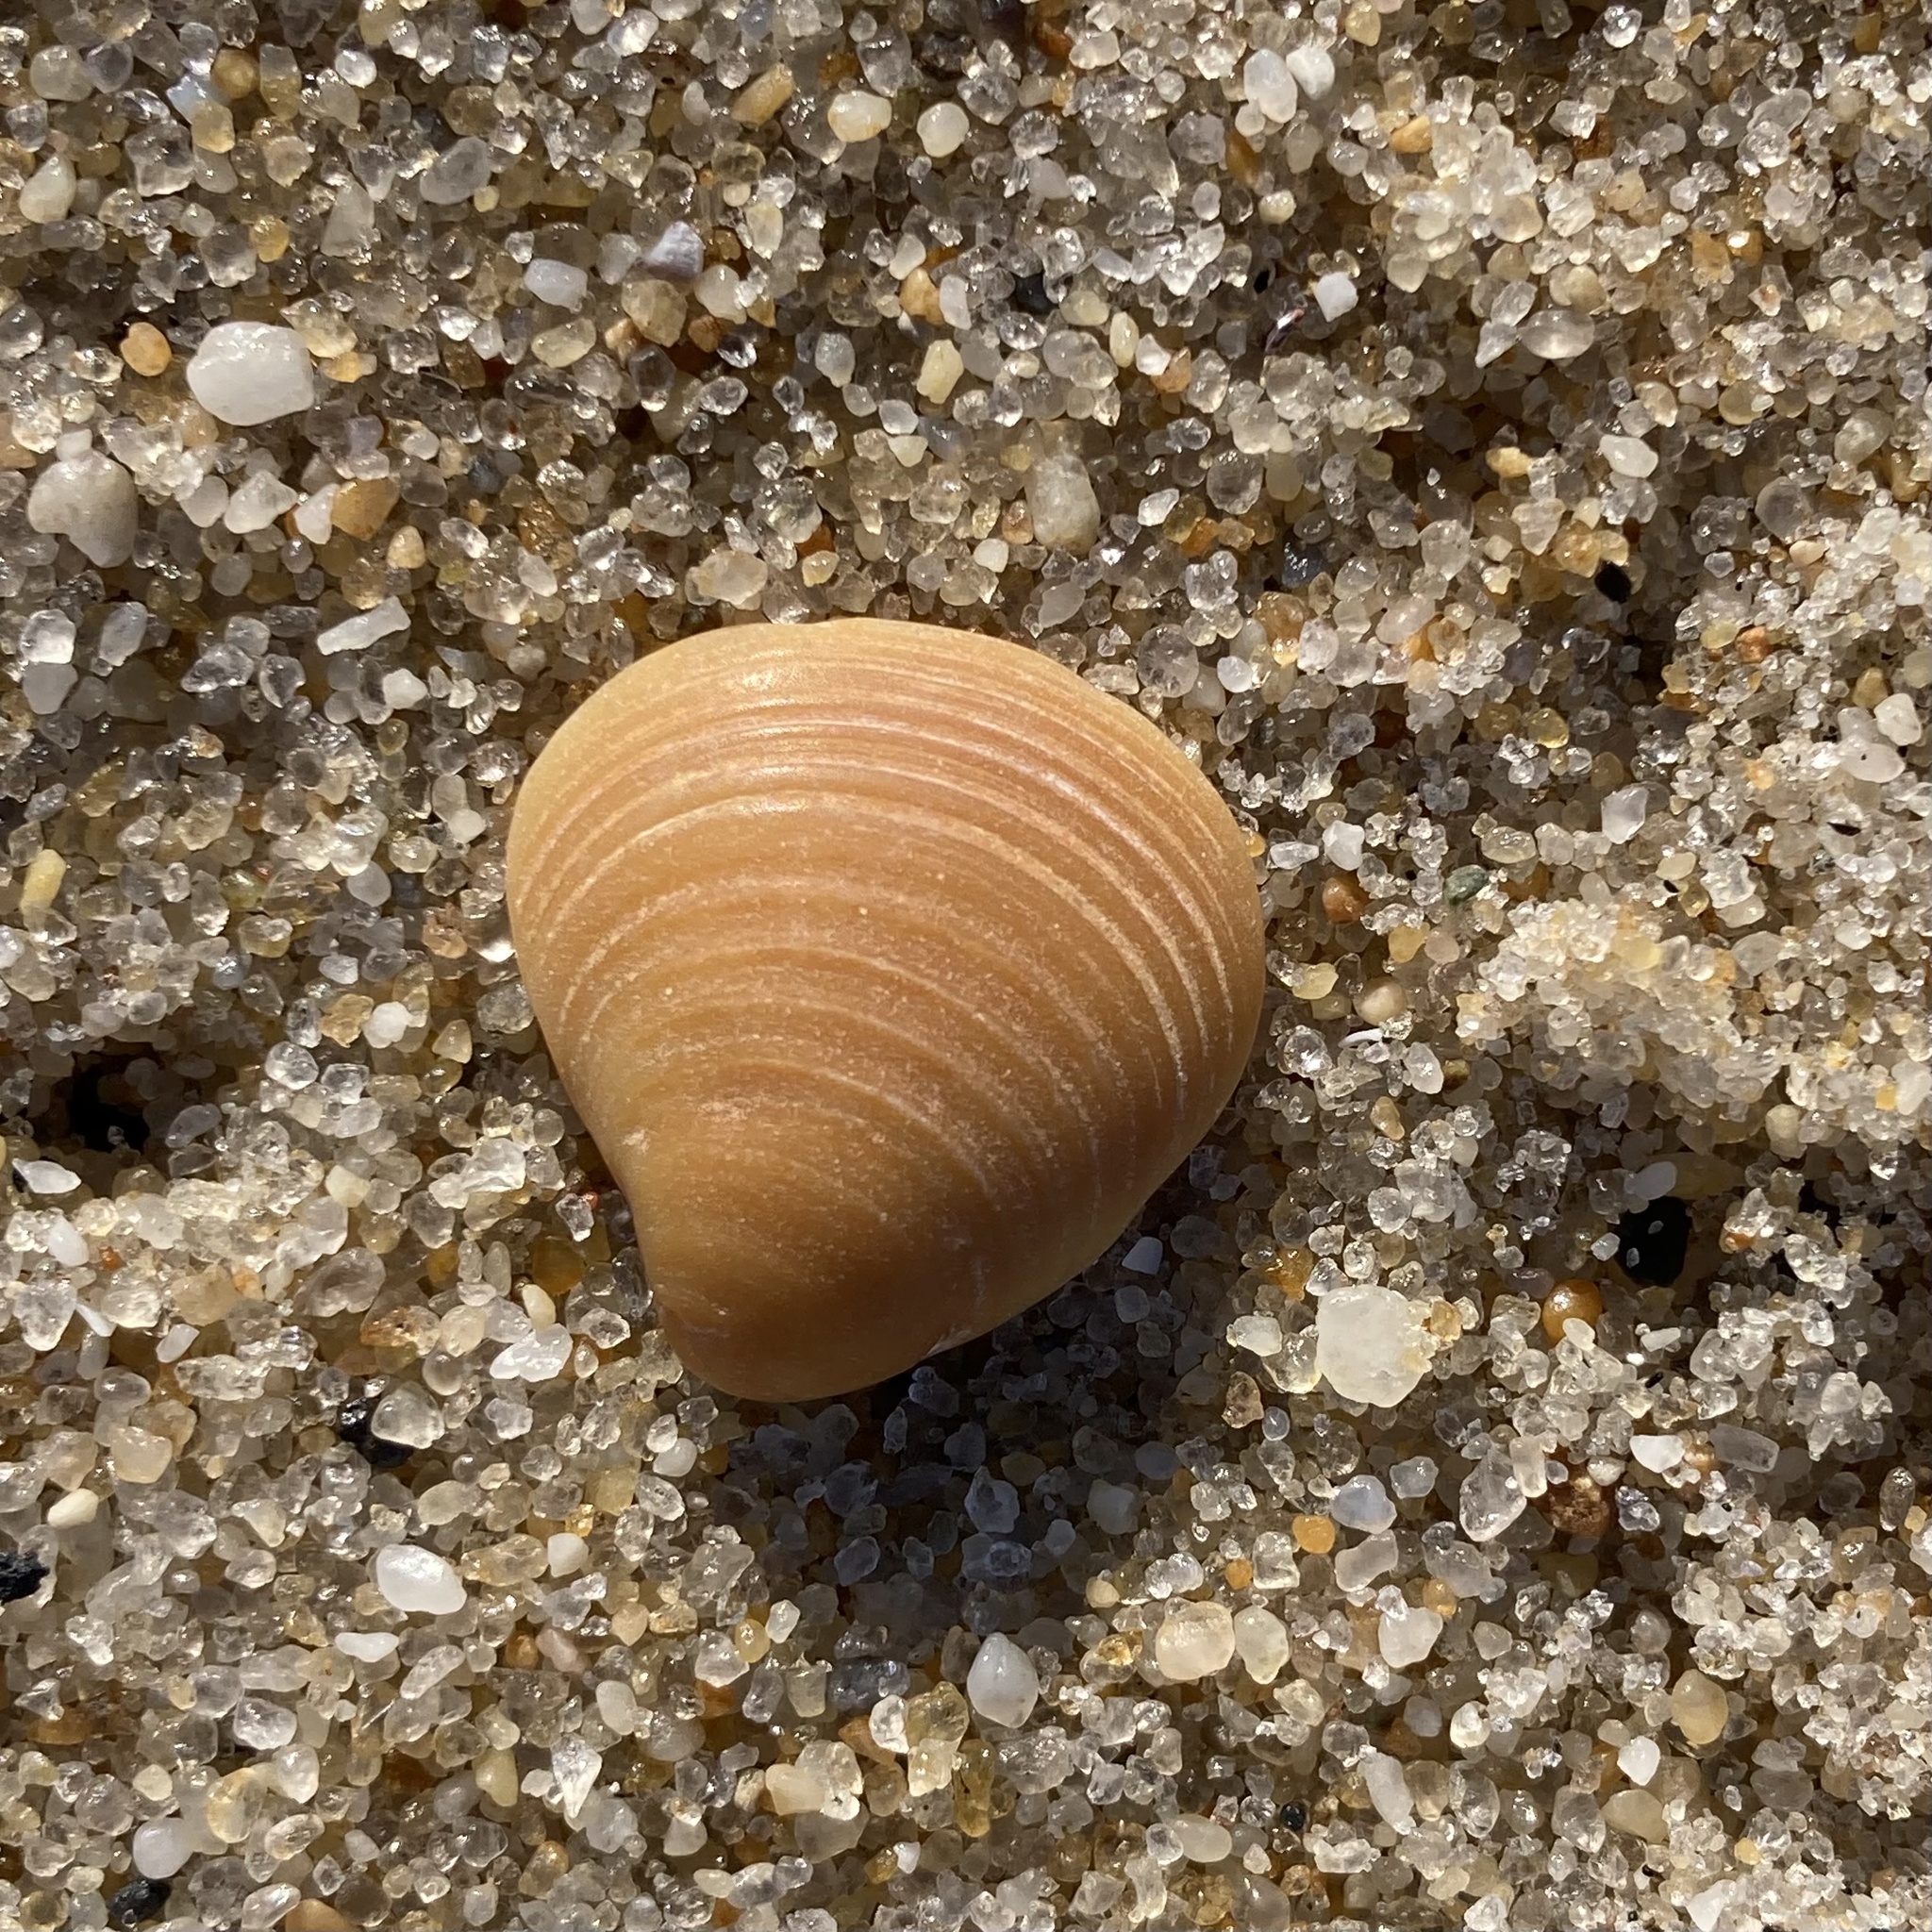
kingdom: Animalia
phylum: Mollusca
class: Bivalvia
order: Cardiida
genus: Isocrassina
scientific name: Isocrassina
